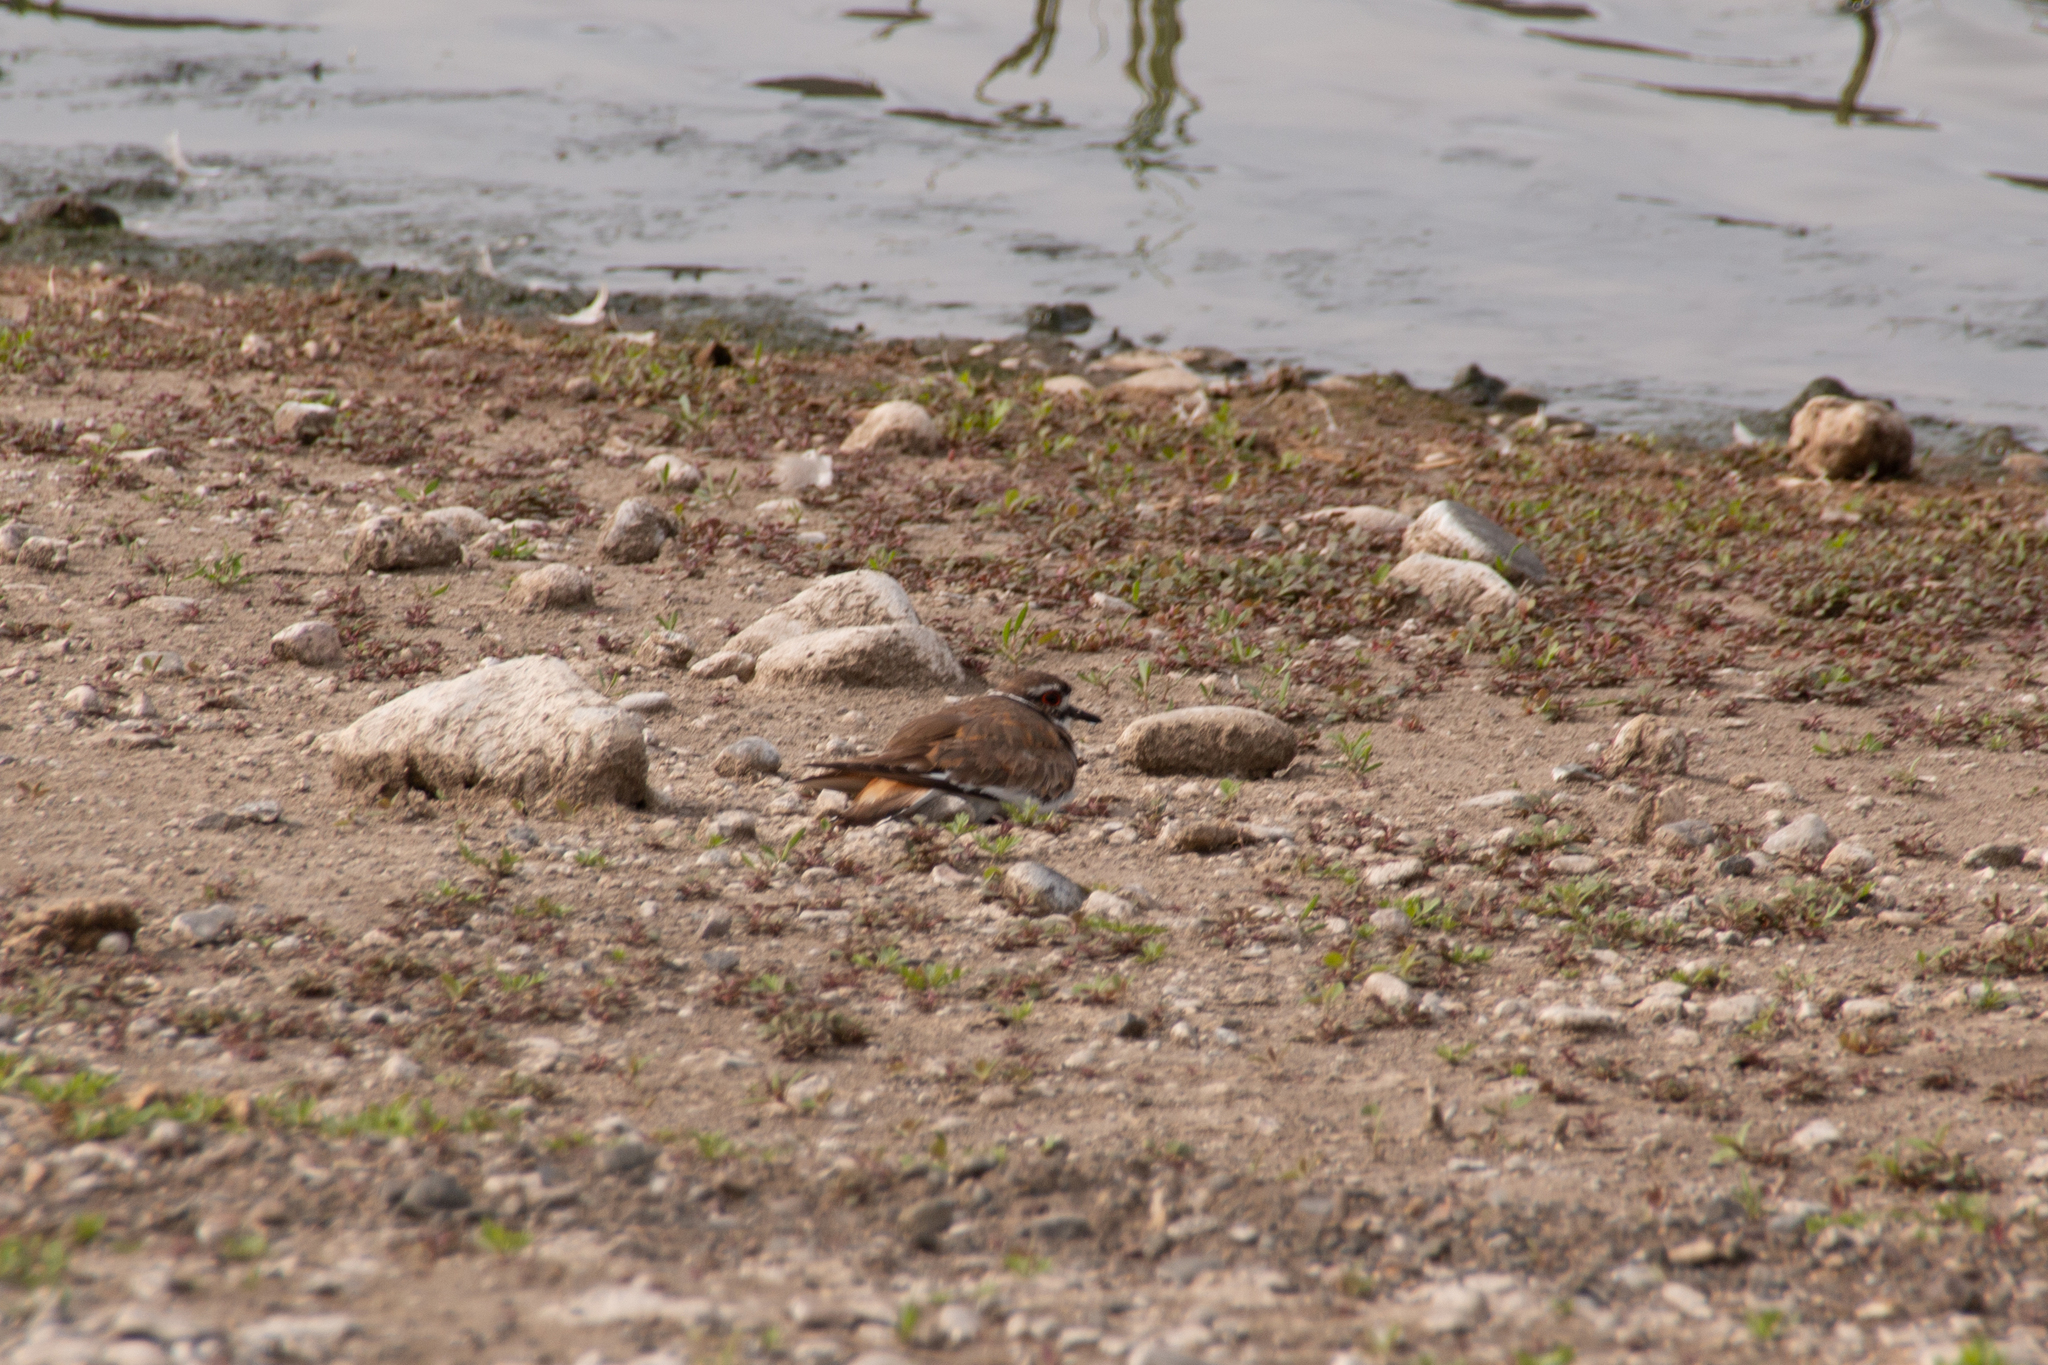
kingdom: Animalia
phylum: Chordata
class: Aves
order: Charadriiformes
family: Charadriidae
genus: Charadrius
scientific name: Charadrius vociferus
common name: Killdeer
